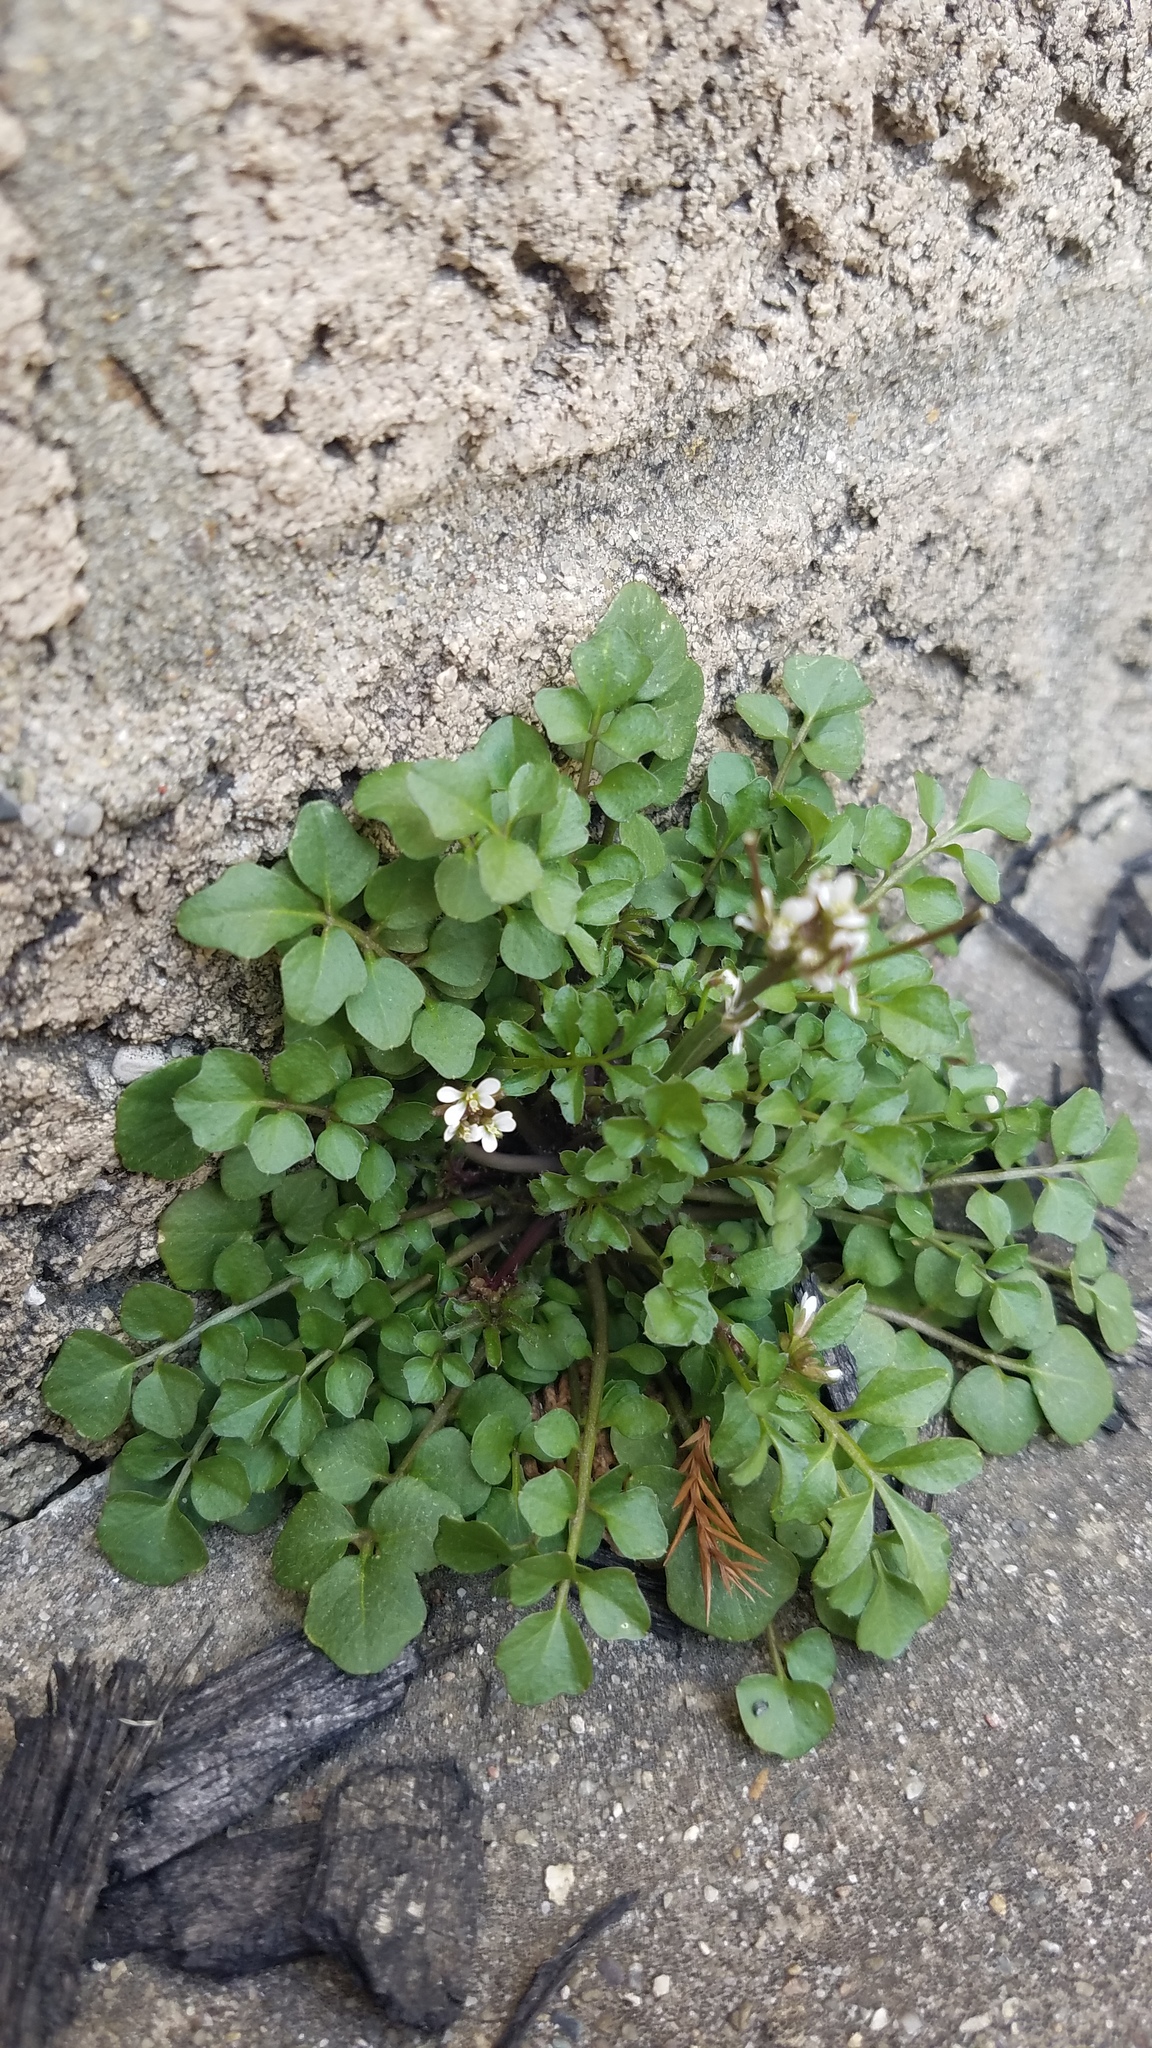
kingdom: Plantae
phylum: Tracheophyta
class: Magnoliopsida
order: Brassicales
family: Brassicaceae
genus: Cardamine
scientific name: Cardamine hirsuta
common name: Hairy bittercress
